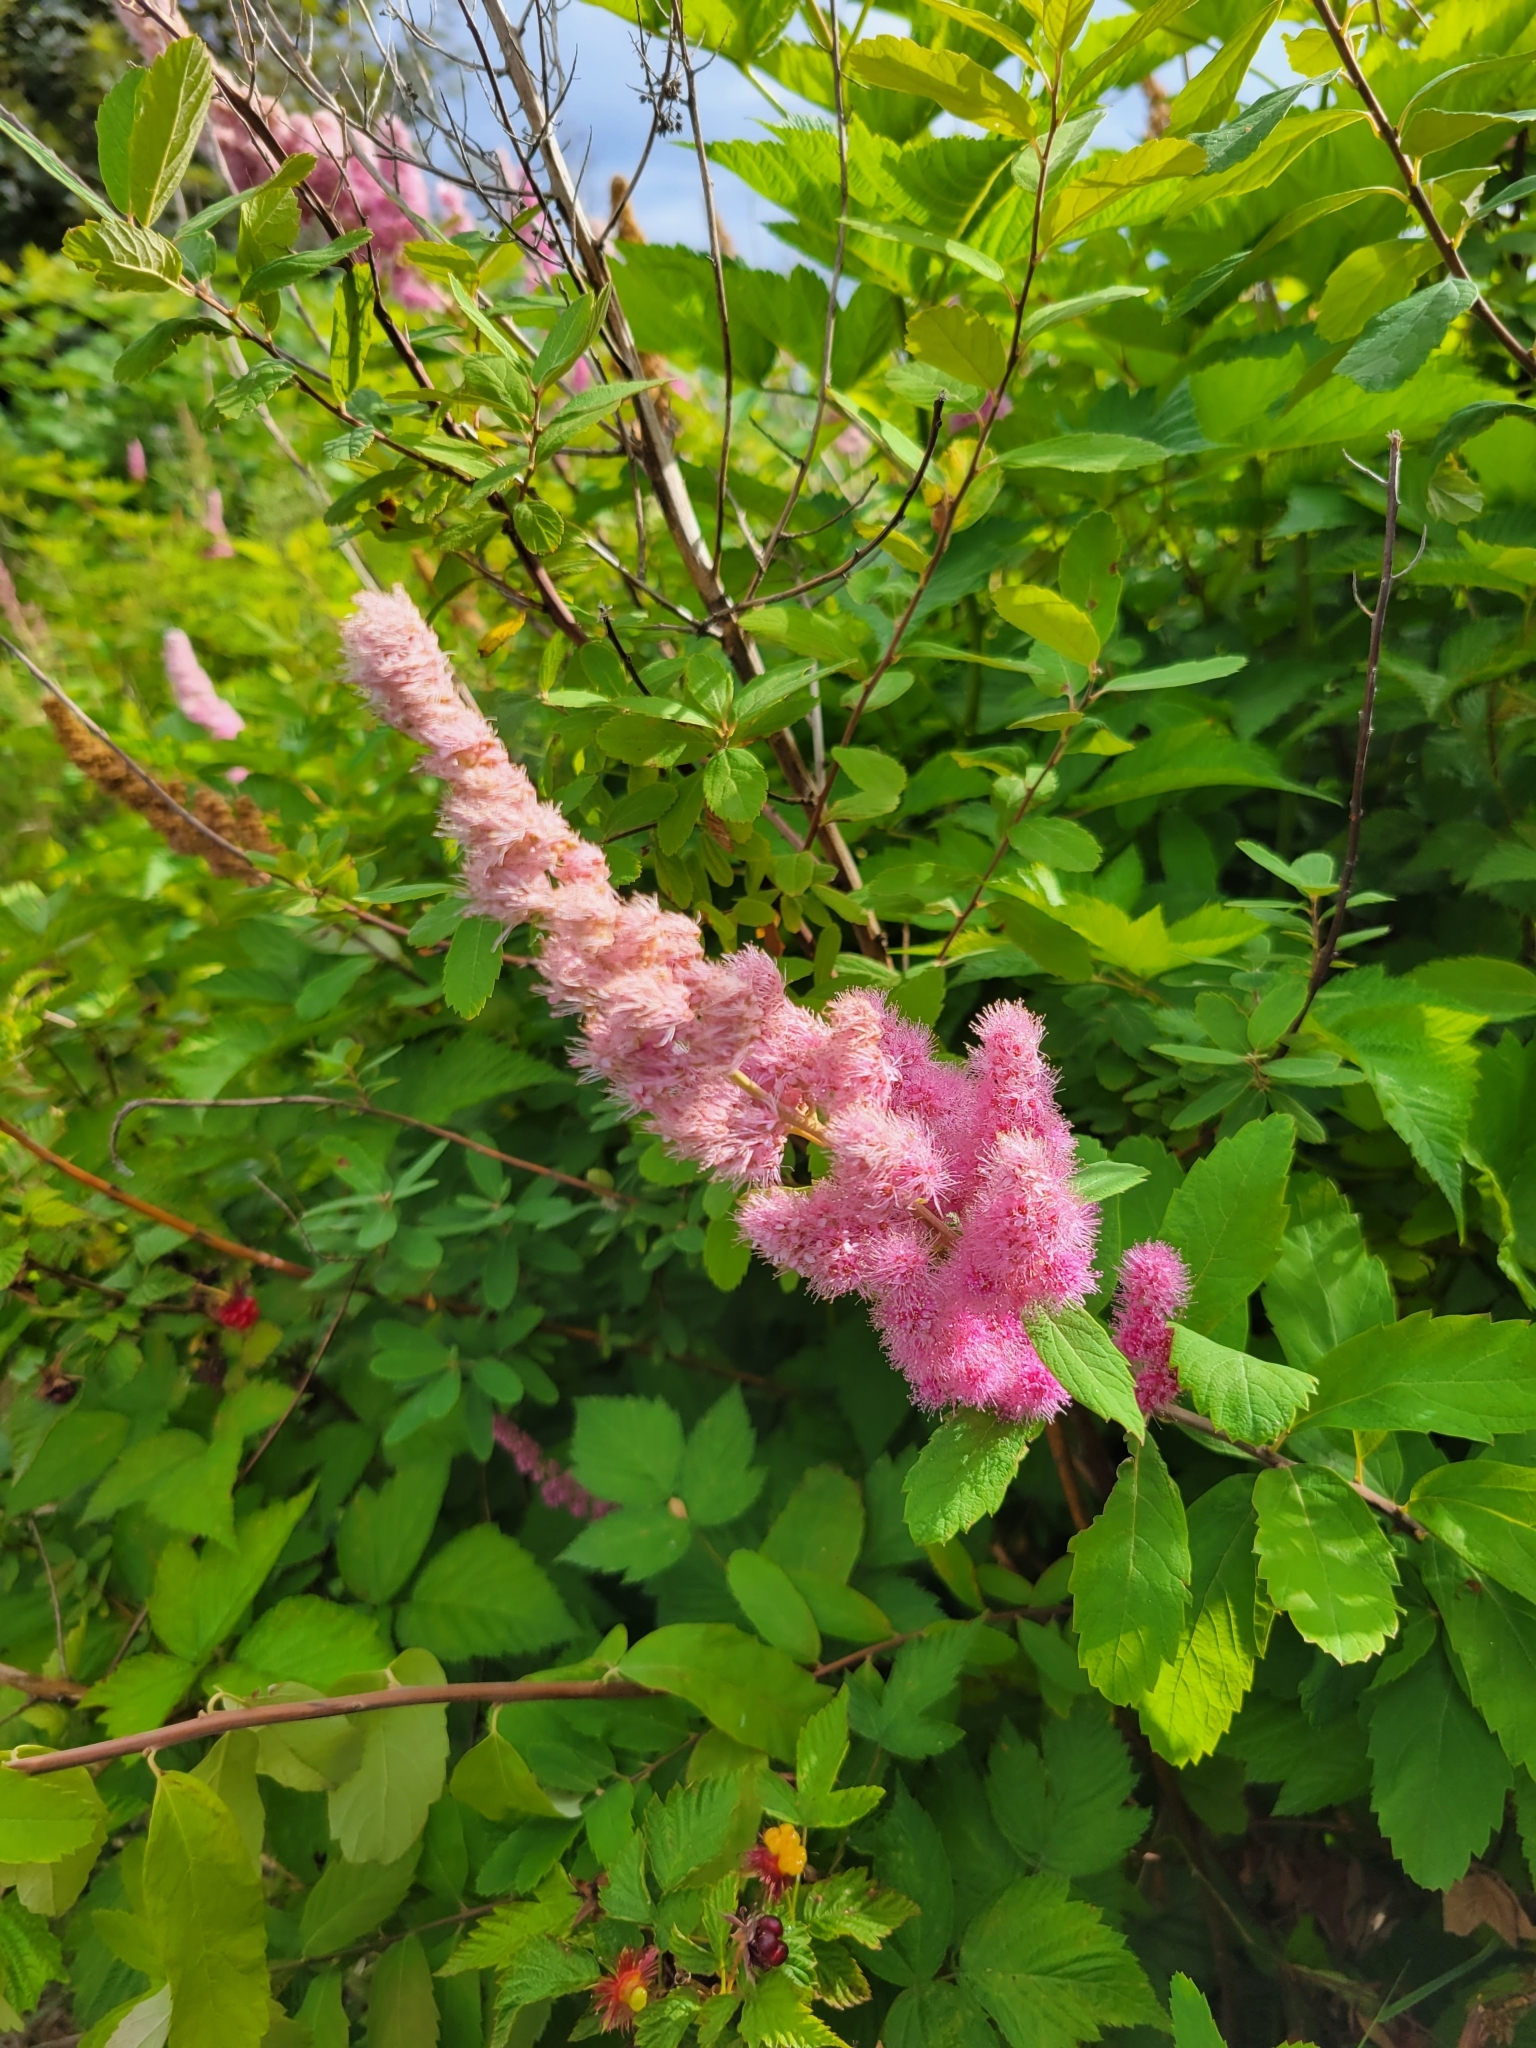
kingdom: Plantae
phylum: Tracheophyta
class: Magnoliopsida
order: Rosales
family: Rosaceae
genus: Spiraea
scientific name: Spiraea douglasii
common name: Steeplebush
